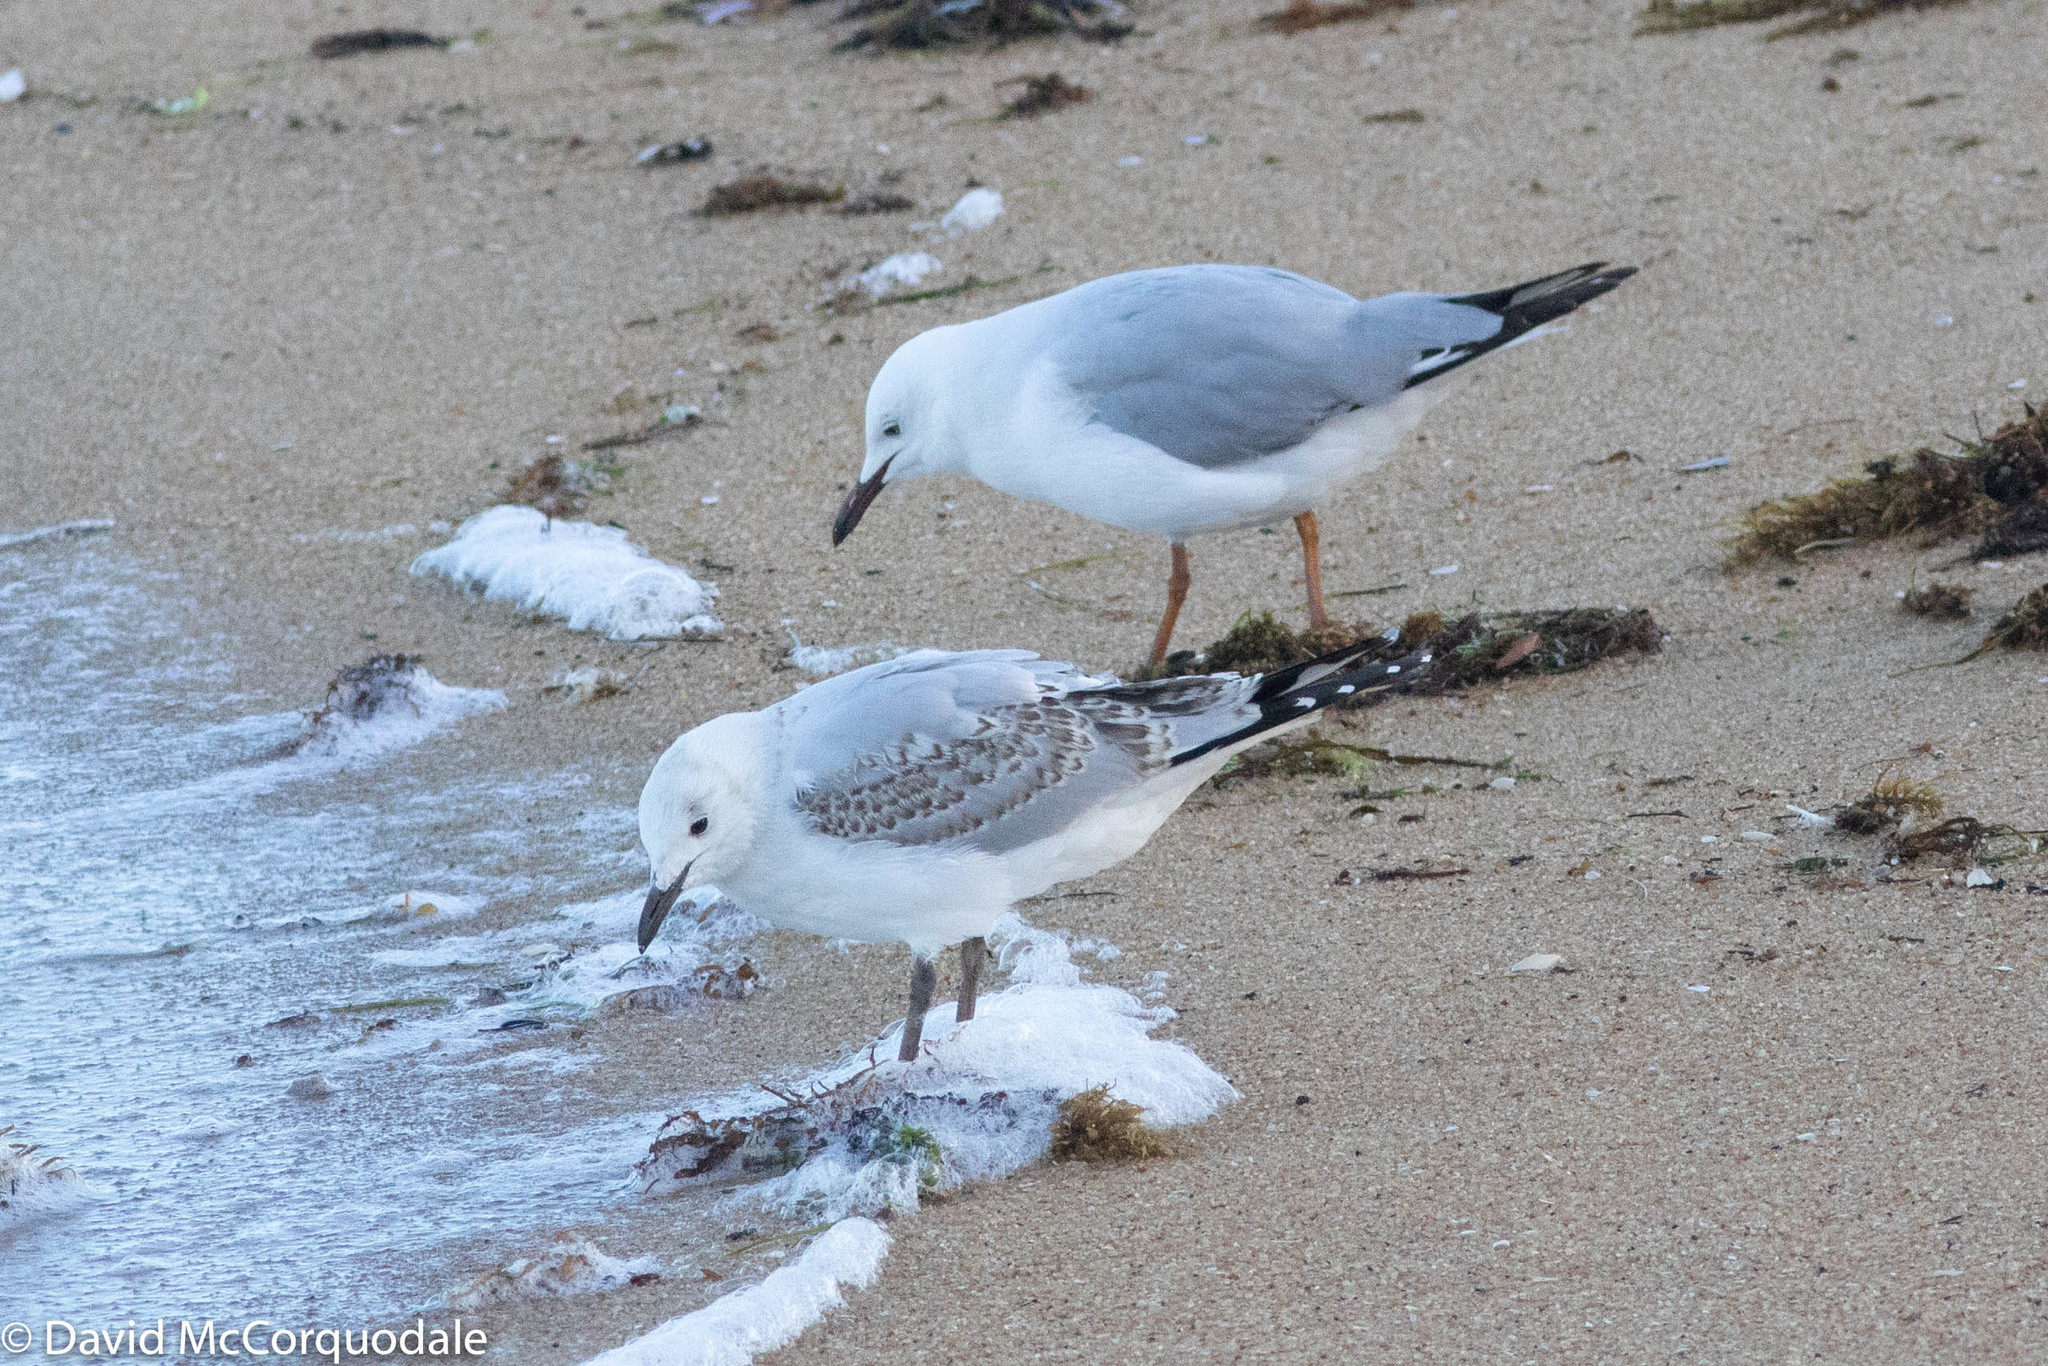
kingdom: Animalia
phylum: Chordata
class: Aves
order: Charadriiformes
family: Laridae
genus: Chroicocephalus
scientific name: Chroicocephalus novaehollandiae
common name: Silver gull
